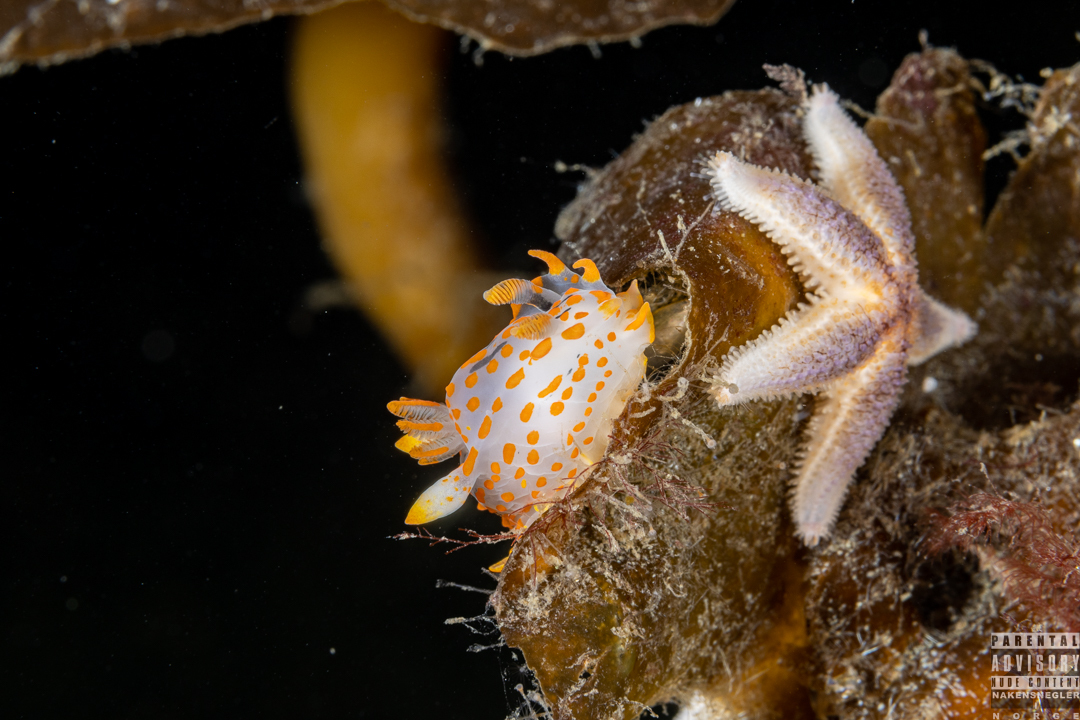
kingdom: Animalia
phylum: Mollusca
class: Gastropoda
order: Nudibranchia
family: Polyceridae
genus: Polycera
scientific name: Polycera quadrilineata
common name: Four-striped polycera
